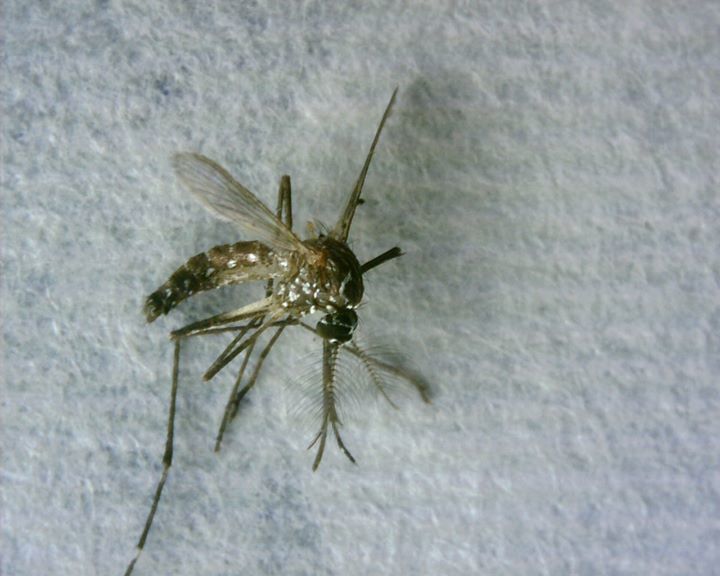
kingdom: Animalia
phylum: Arthropoda
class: Insecta
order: Diptera
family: Culicidae
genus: Aedes
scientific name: Aedes aegypti
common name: Yellow fever mosquito
